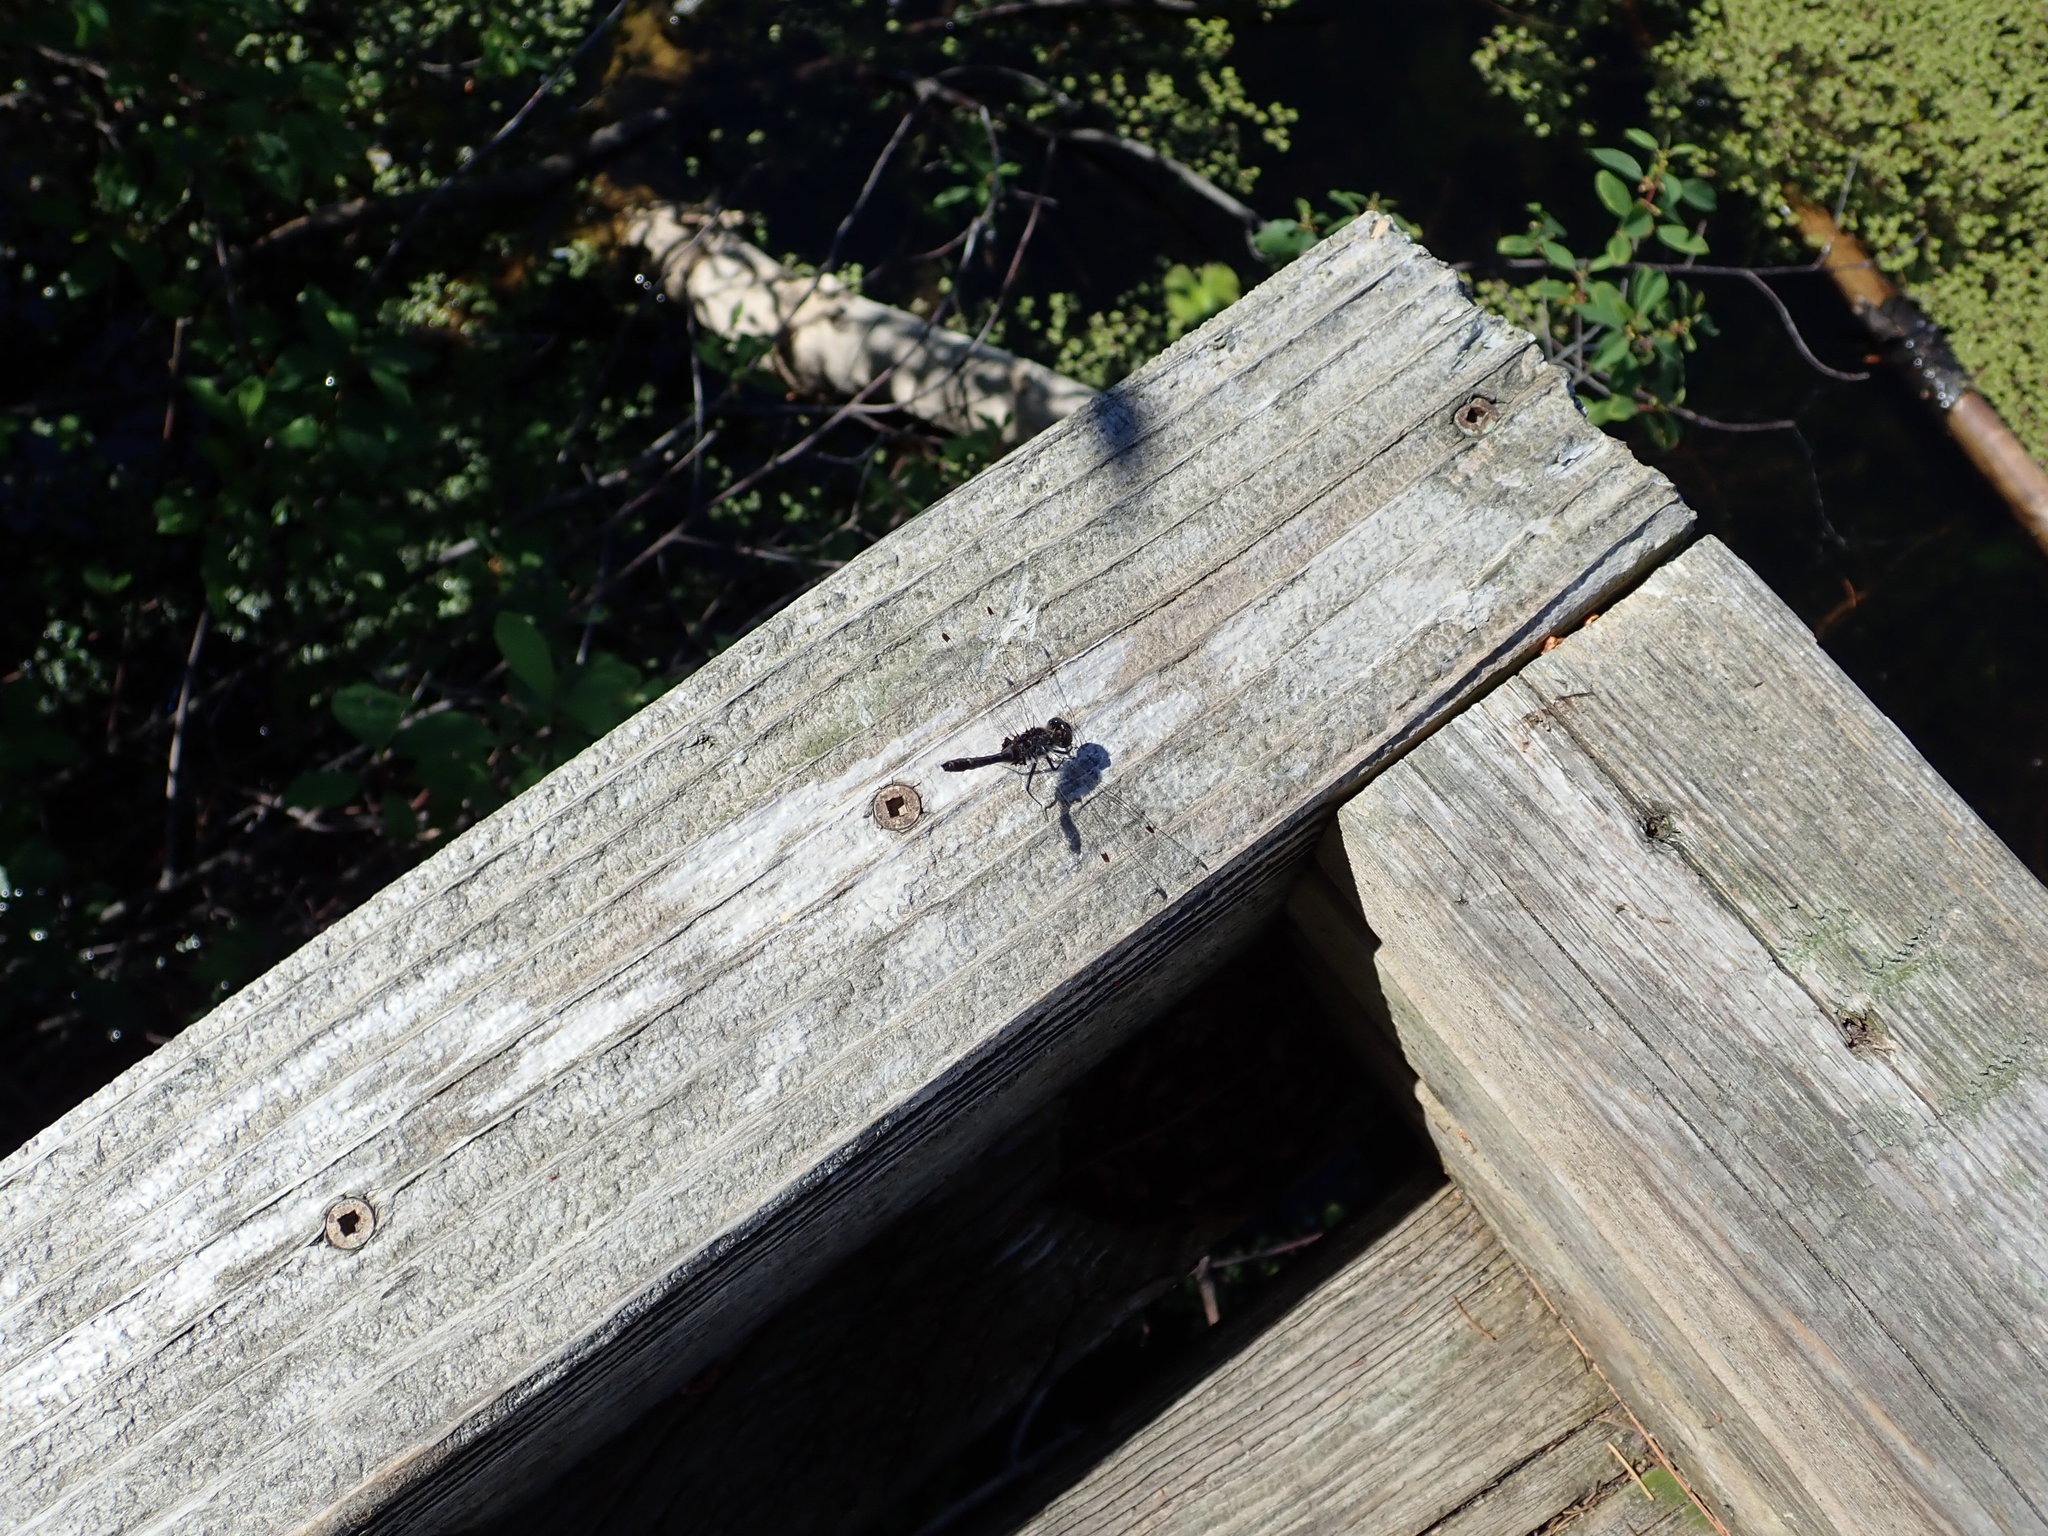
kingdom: Animalia
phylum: Arthropoda
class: Insecta
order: Odonata
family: Libellulidae
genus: Leucorrhinia
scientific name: Leucorrhinia intacta
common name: Dot-tailed whiteface
